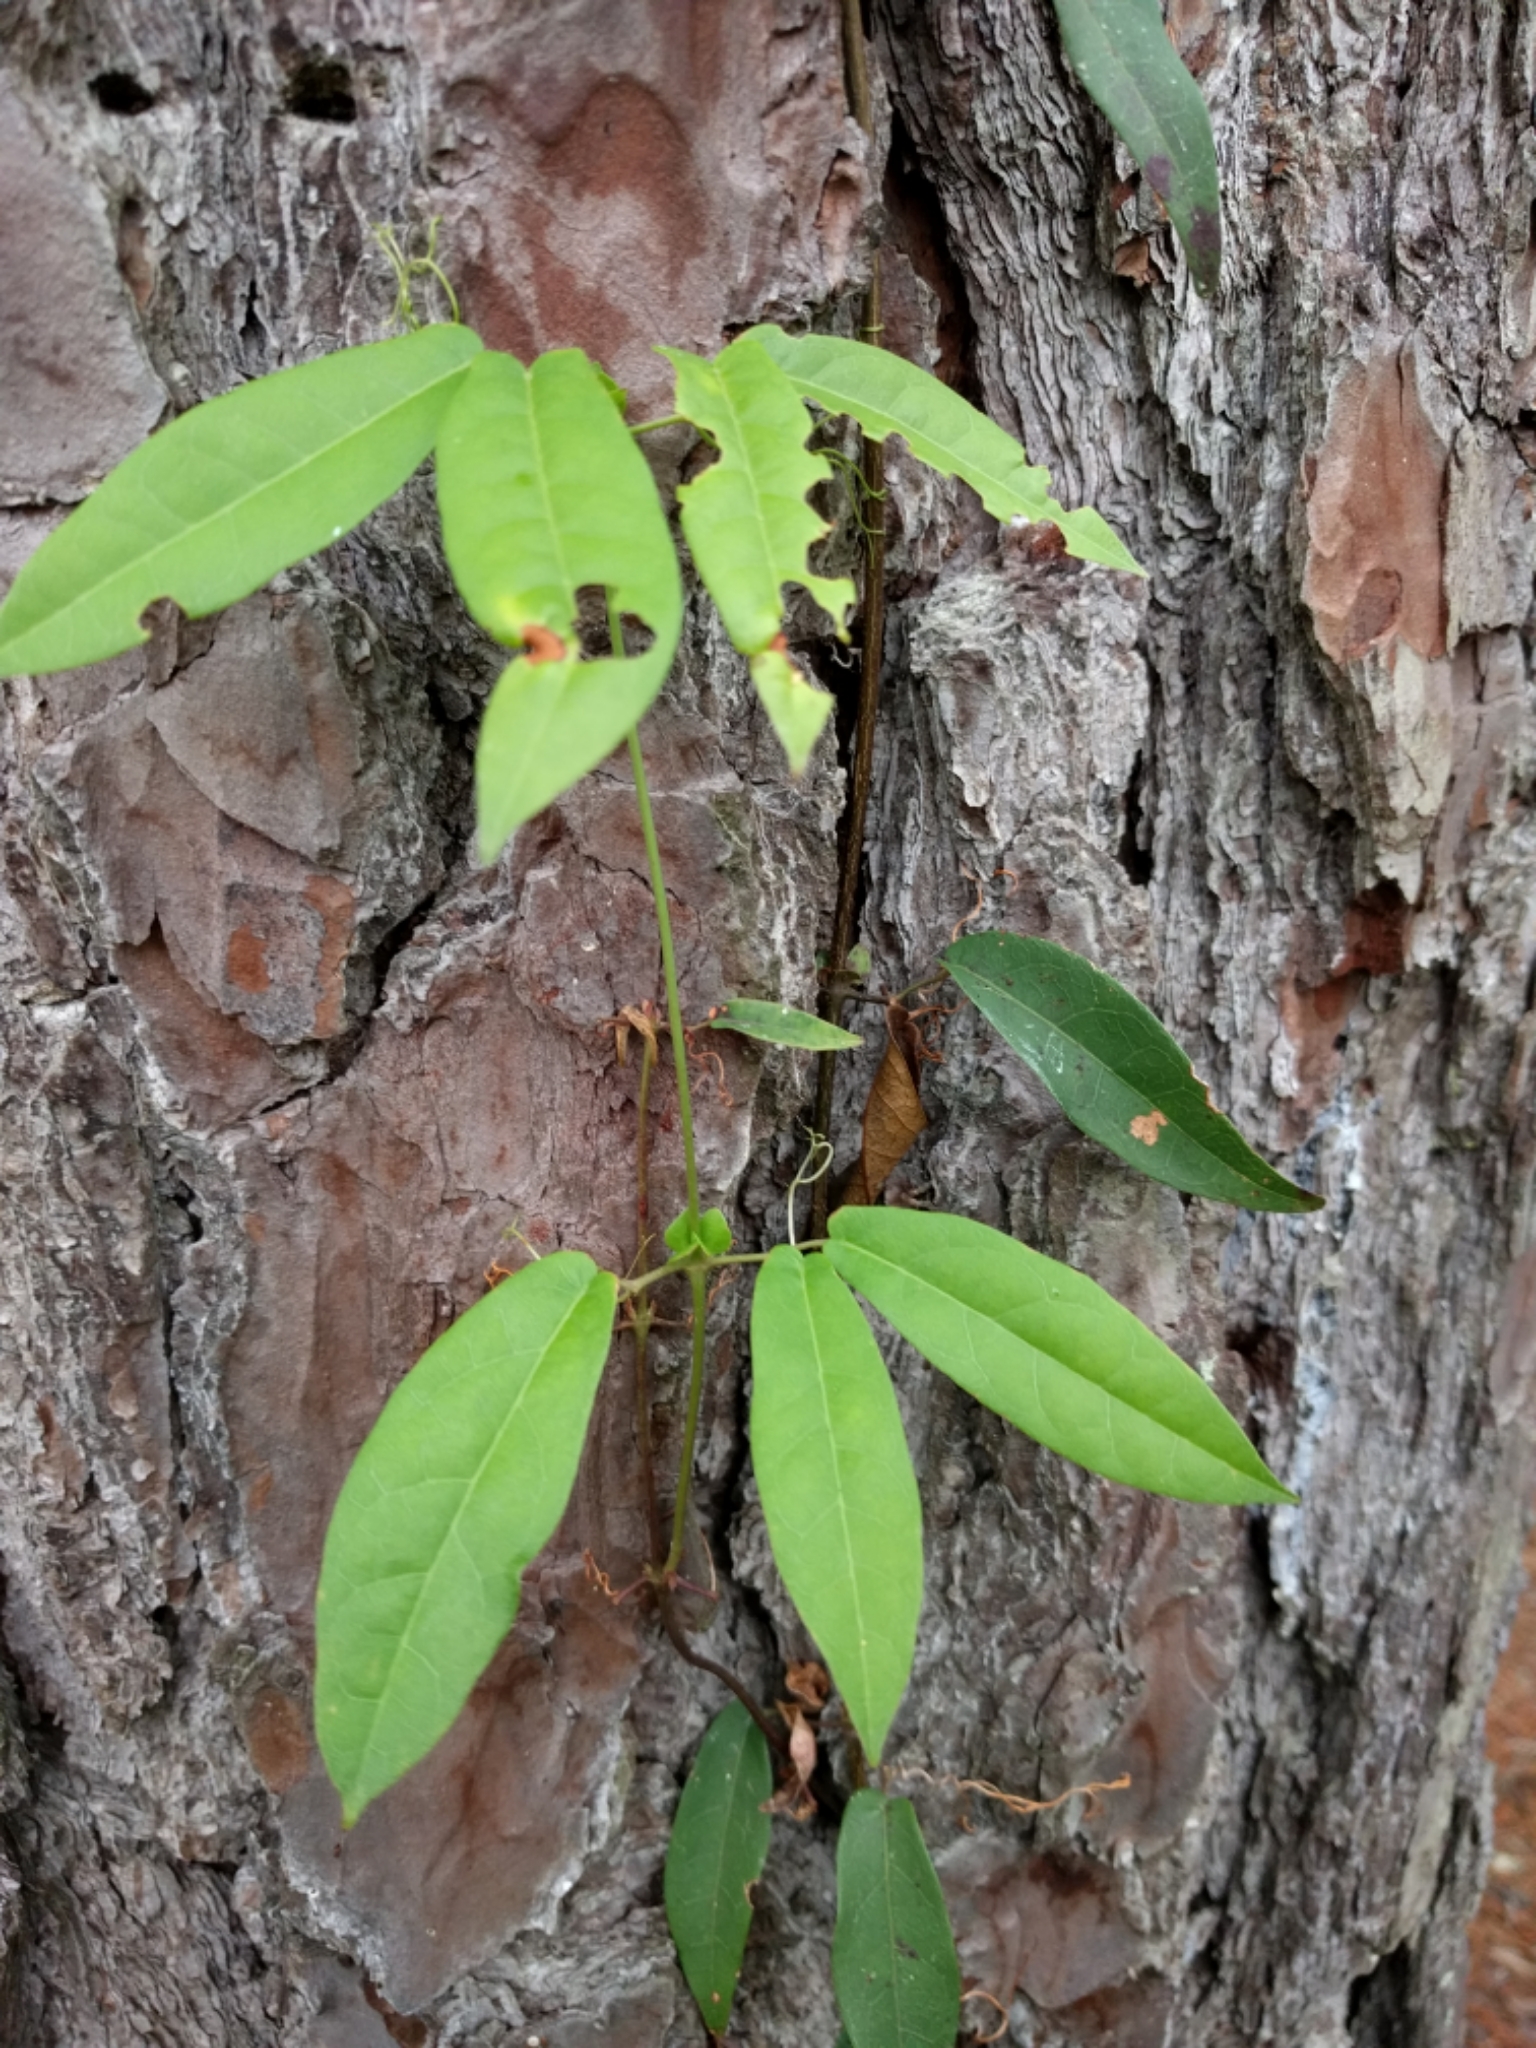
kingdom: Plantae
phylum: Tracheophyta
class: Magnoliopsida
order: Lamiales
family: Bignoniaceae
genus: Bignonia
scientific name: Bignonia capreolata
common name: Crossvine
